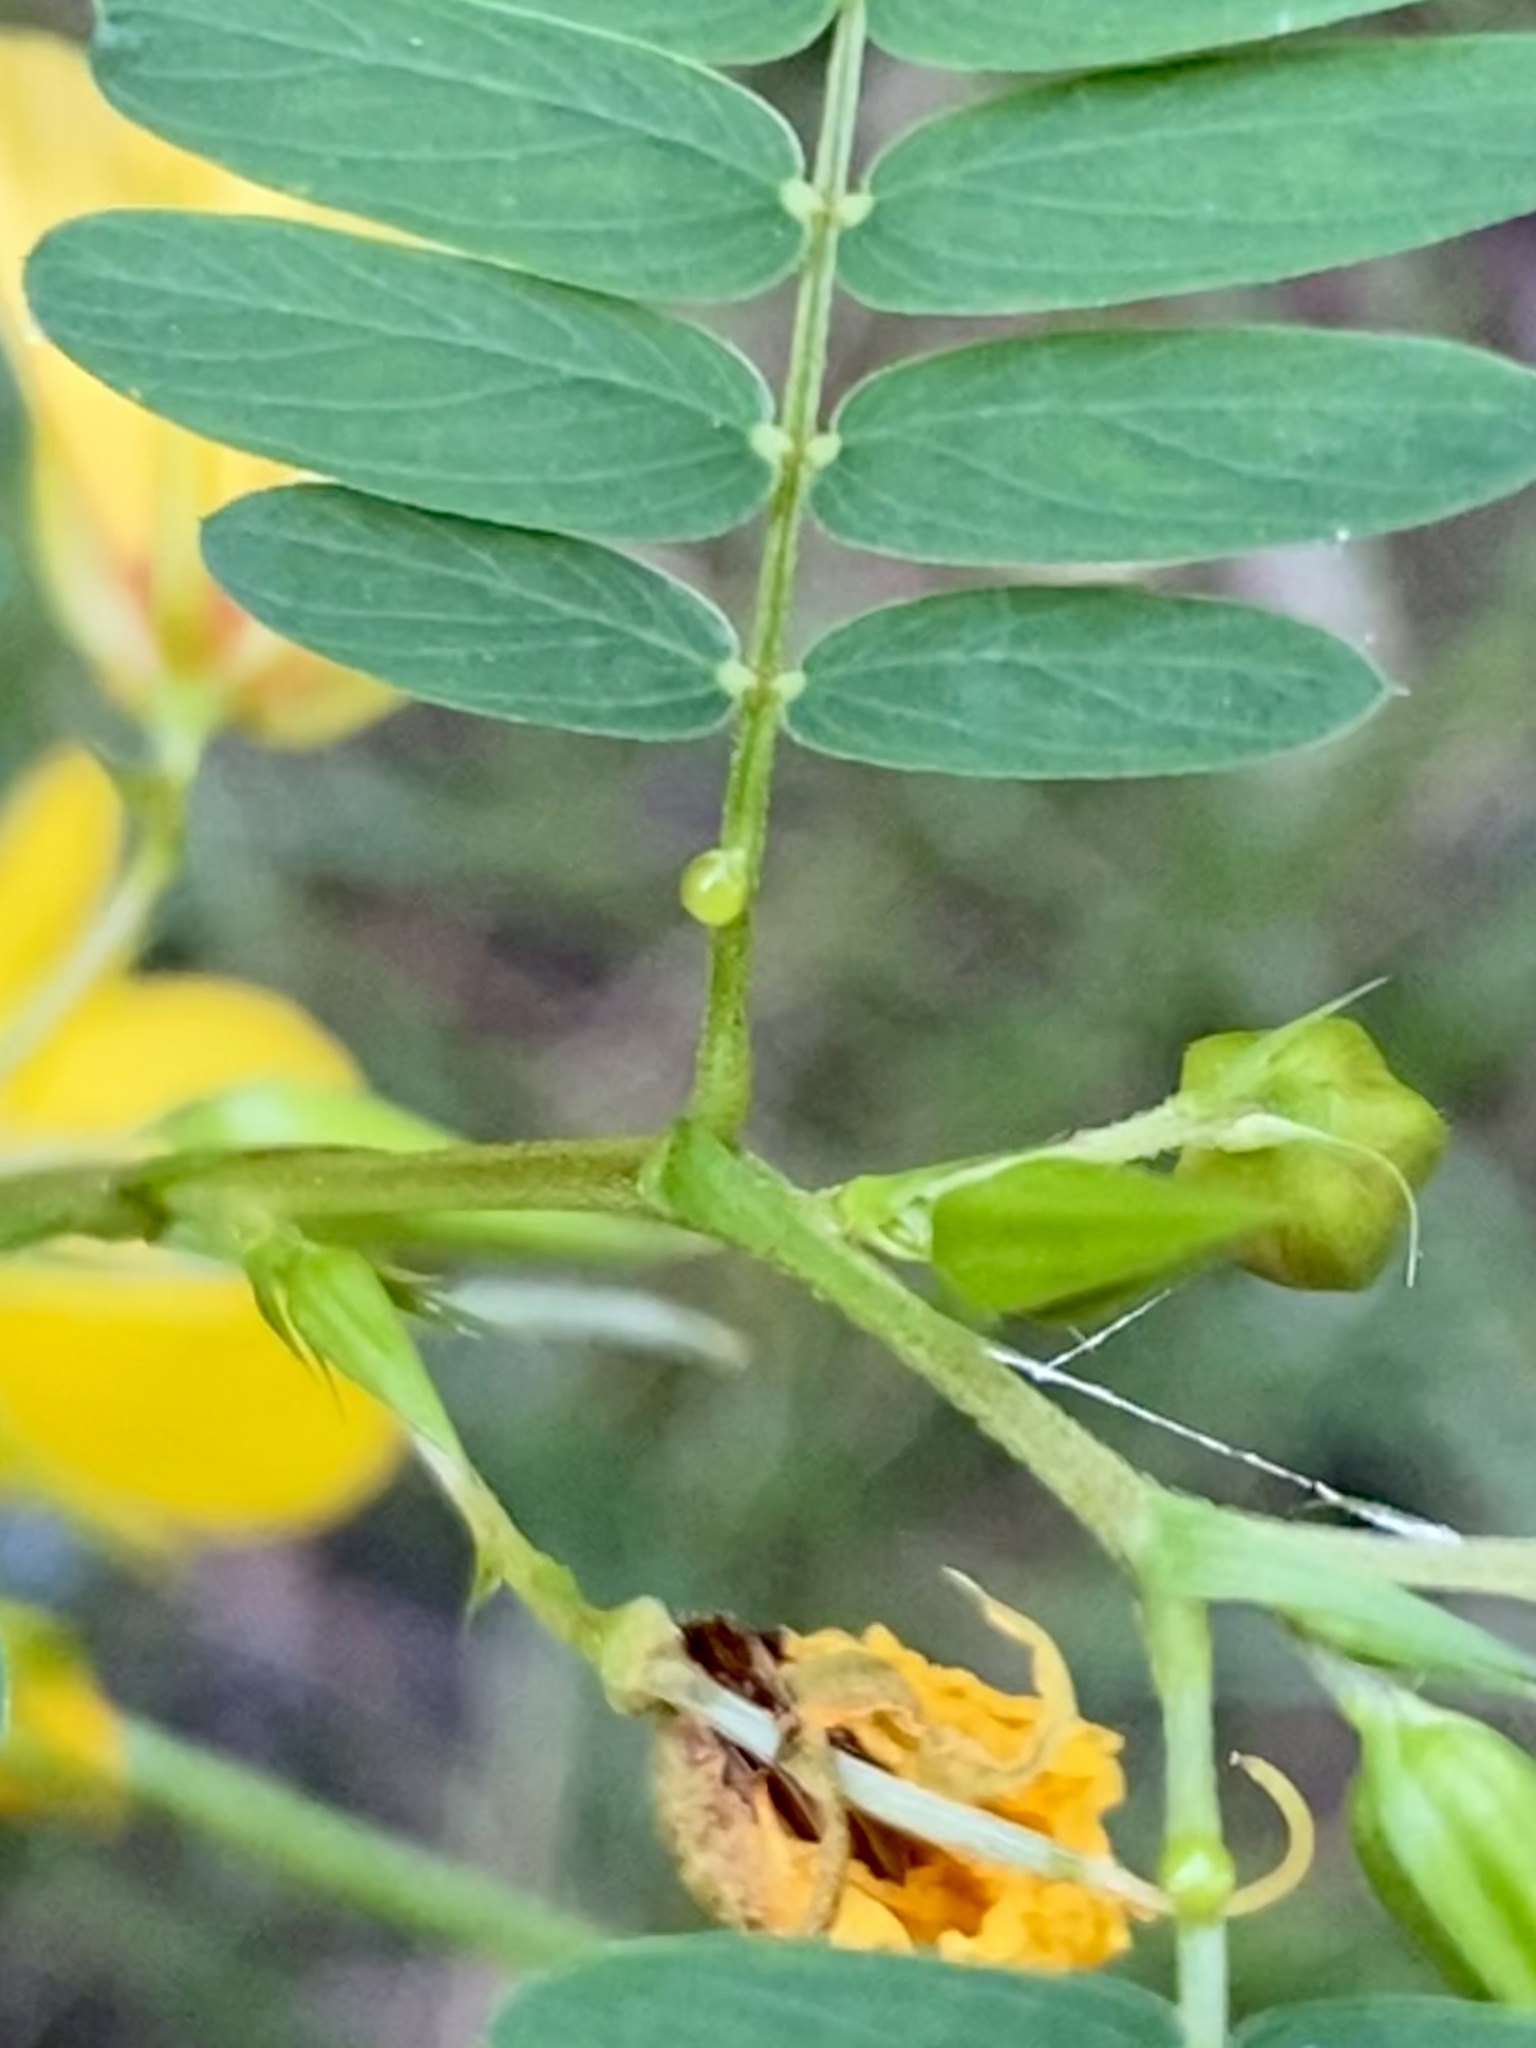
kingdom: Plantae
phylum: Tracheophyta
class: Magnoliopsida
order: Fabales
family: Fabaceae
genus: Chamaecrista
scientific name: Chamaecrista fasciculata
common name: Golden cassia
